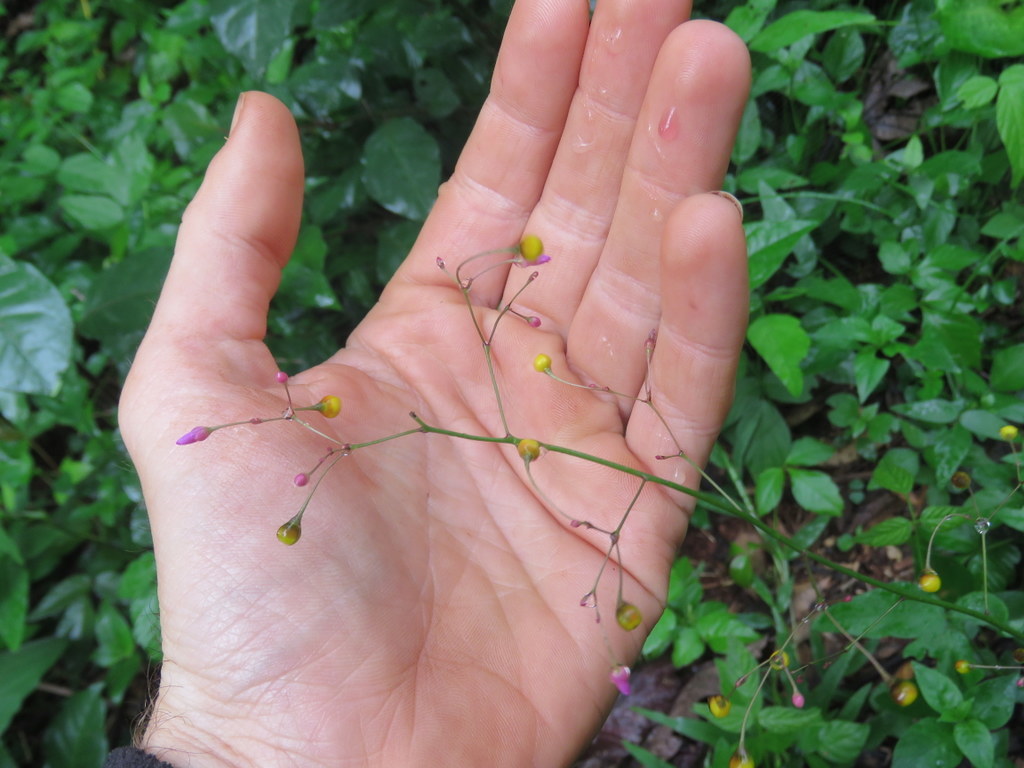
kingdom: Plantae
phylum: Tracheophyta
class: Magnoliopsida
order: Caryophyllales
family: Talinaceae
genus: Talinum
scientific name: Talinum paniculatum
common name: Jewels of opar
